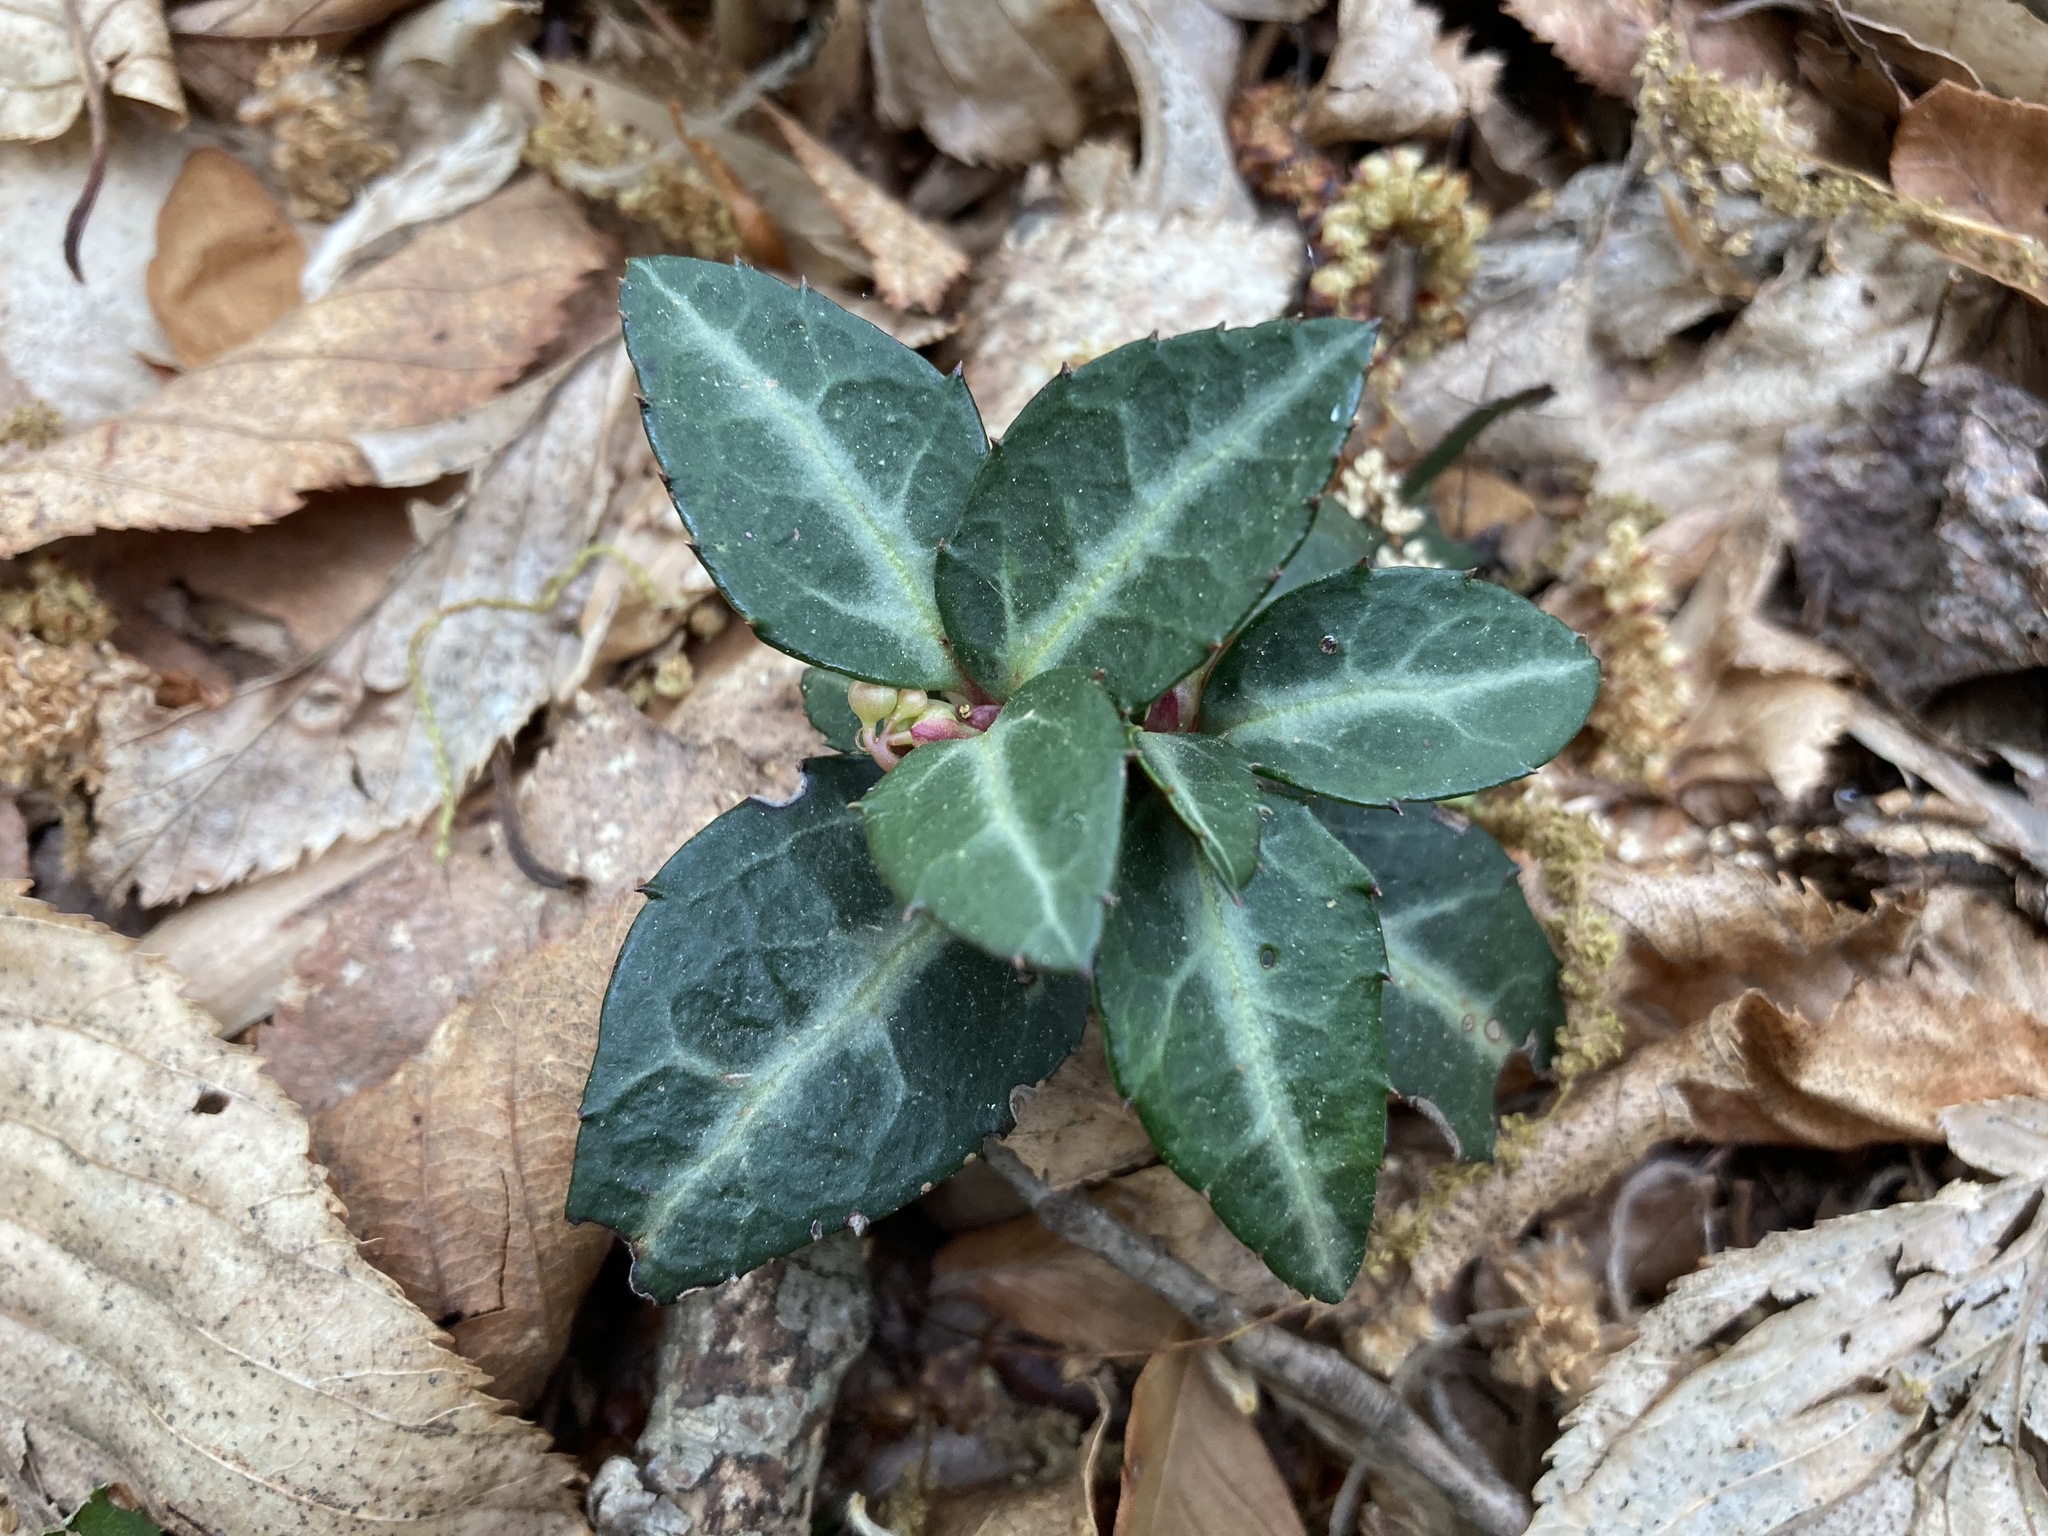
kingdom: Plantae
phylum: Tracheophyta
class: Magnoliopsida
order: Ericales
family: Ericaceae
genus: Chimaphila
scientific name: Chimaphila maculata
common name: Spotted pipsissewa
